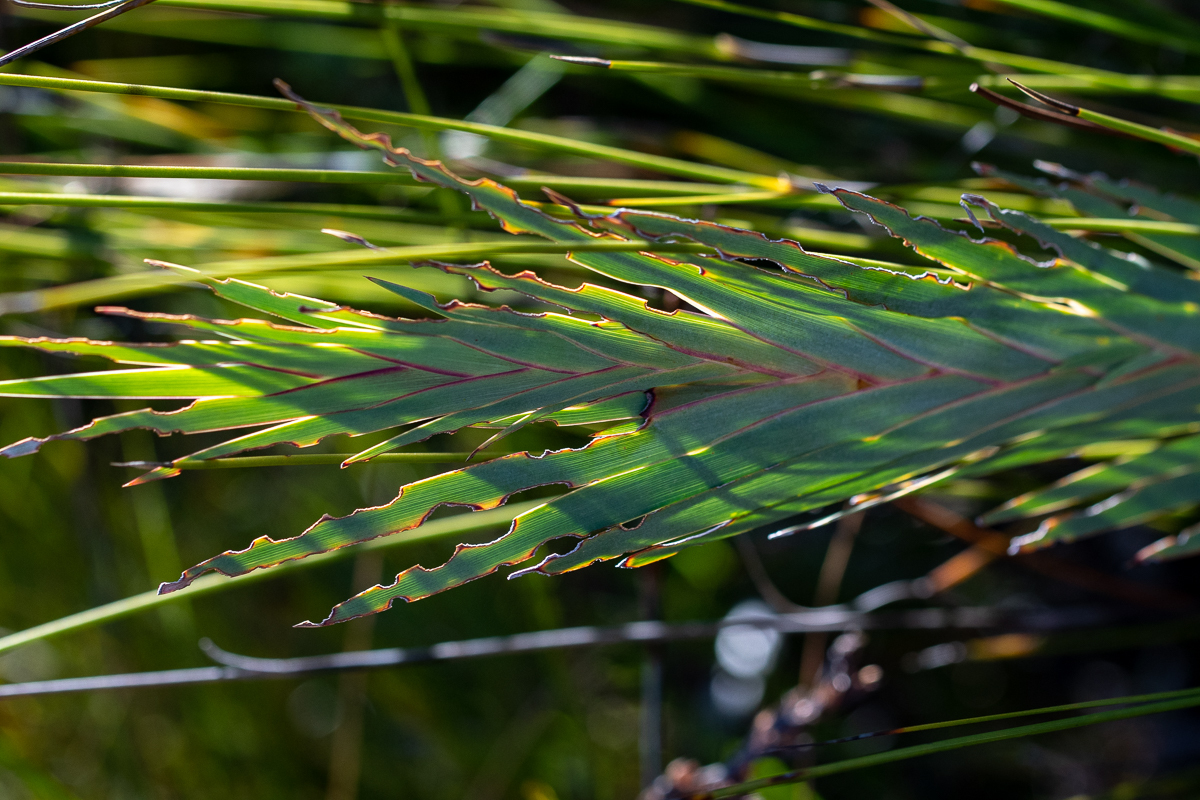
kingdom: Plantae
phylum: Tracheophyta
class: Liliopsida
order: Asparagales
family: Iridaceae
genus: Nivenia
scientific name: Nivenia stokoei
